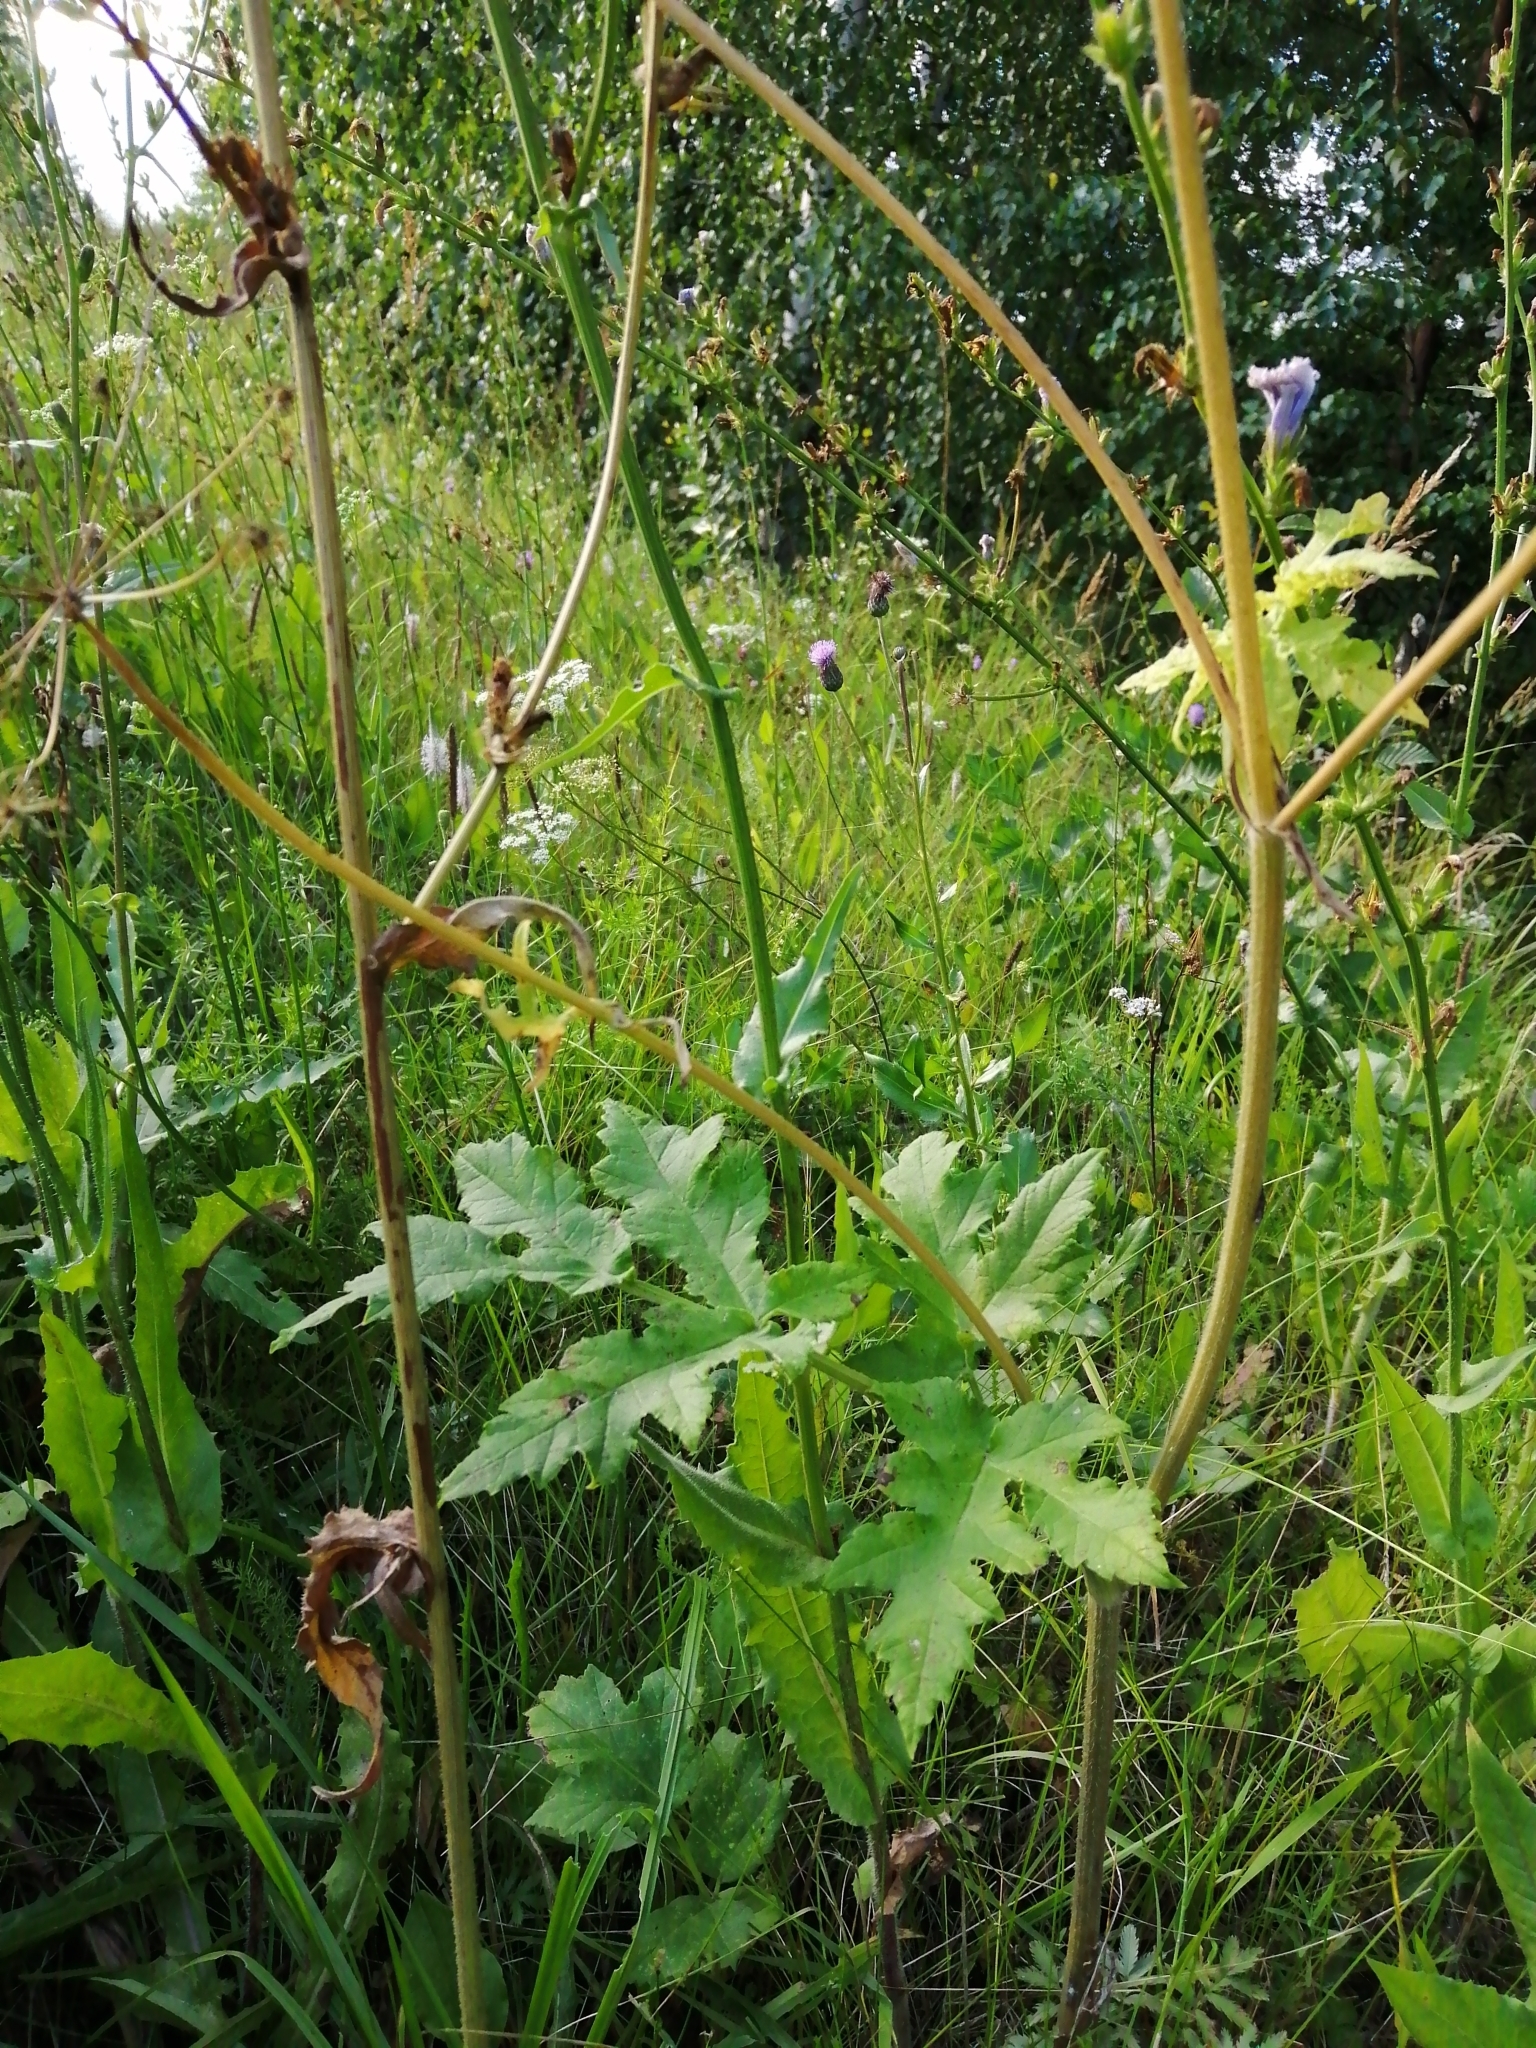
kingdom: Plantae
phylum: Tracheophyta
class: Magnoliopsida
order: Apiales
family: Apiaceae
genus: Heracleum
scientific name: Heracleum sphondylium
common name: Hogweed
